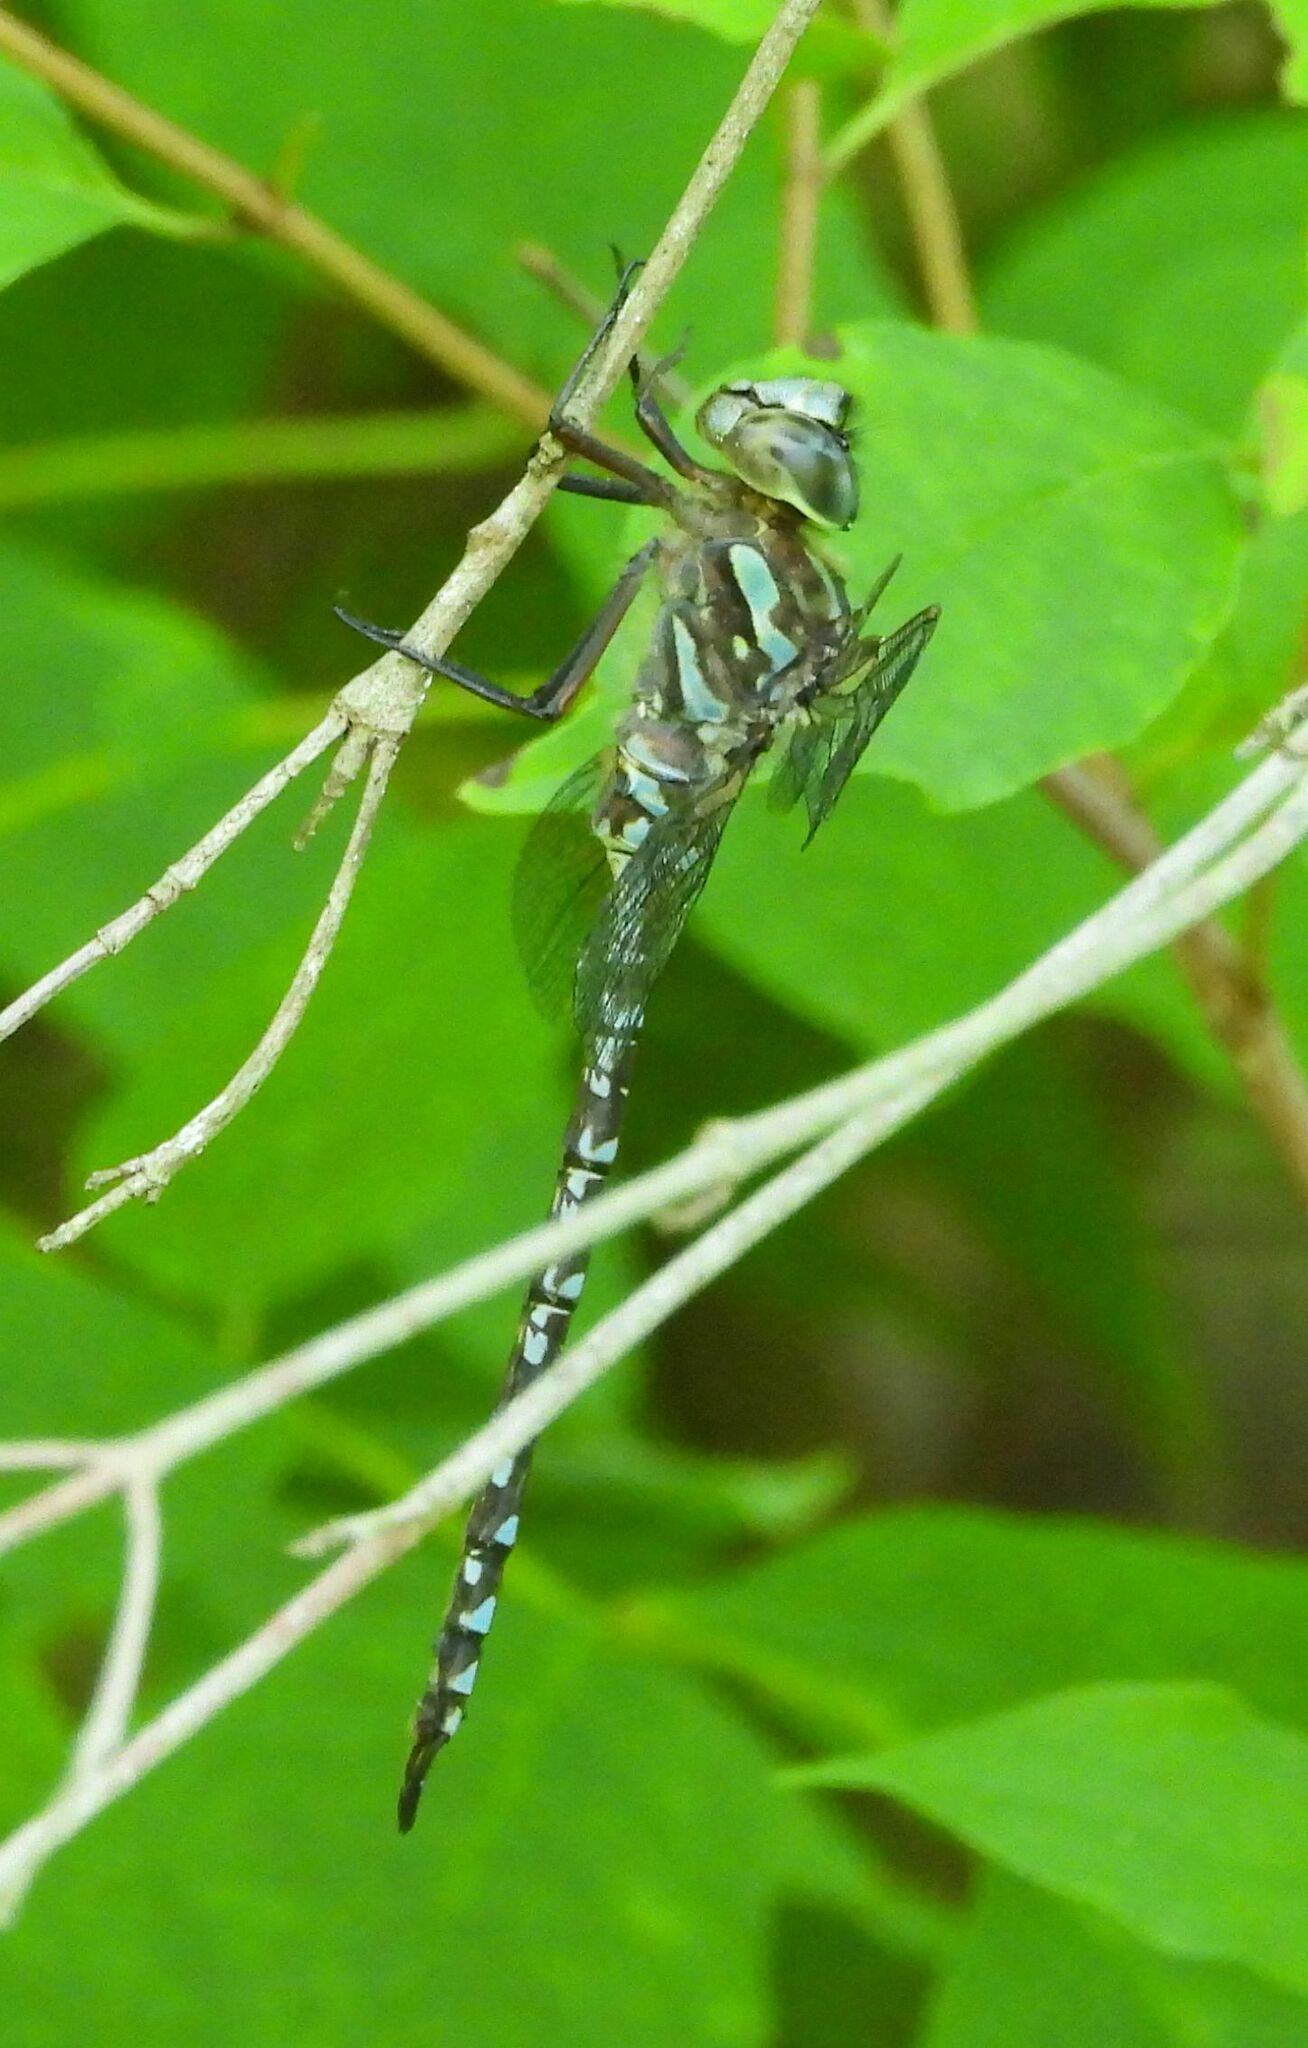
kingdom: Animalia
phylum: Arthropoda
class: Insecta
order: Odonata
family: Aeshnidae
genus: Aeshna
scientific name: Aeshna canadensis
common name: Canada darner
